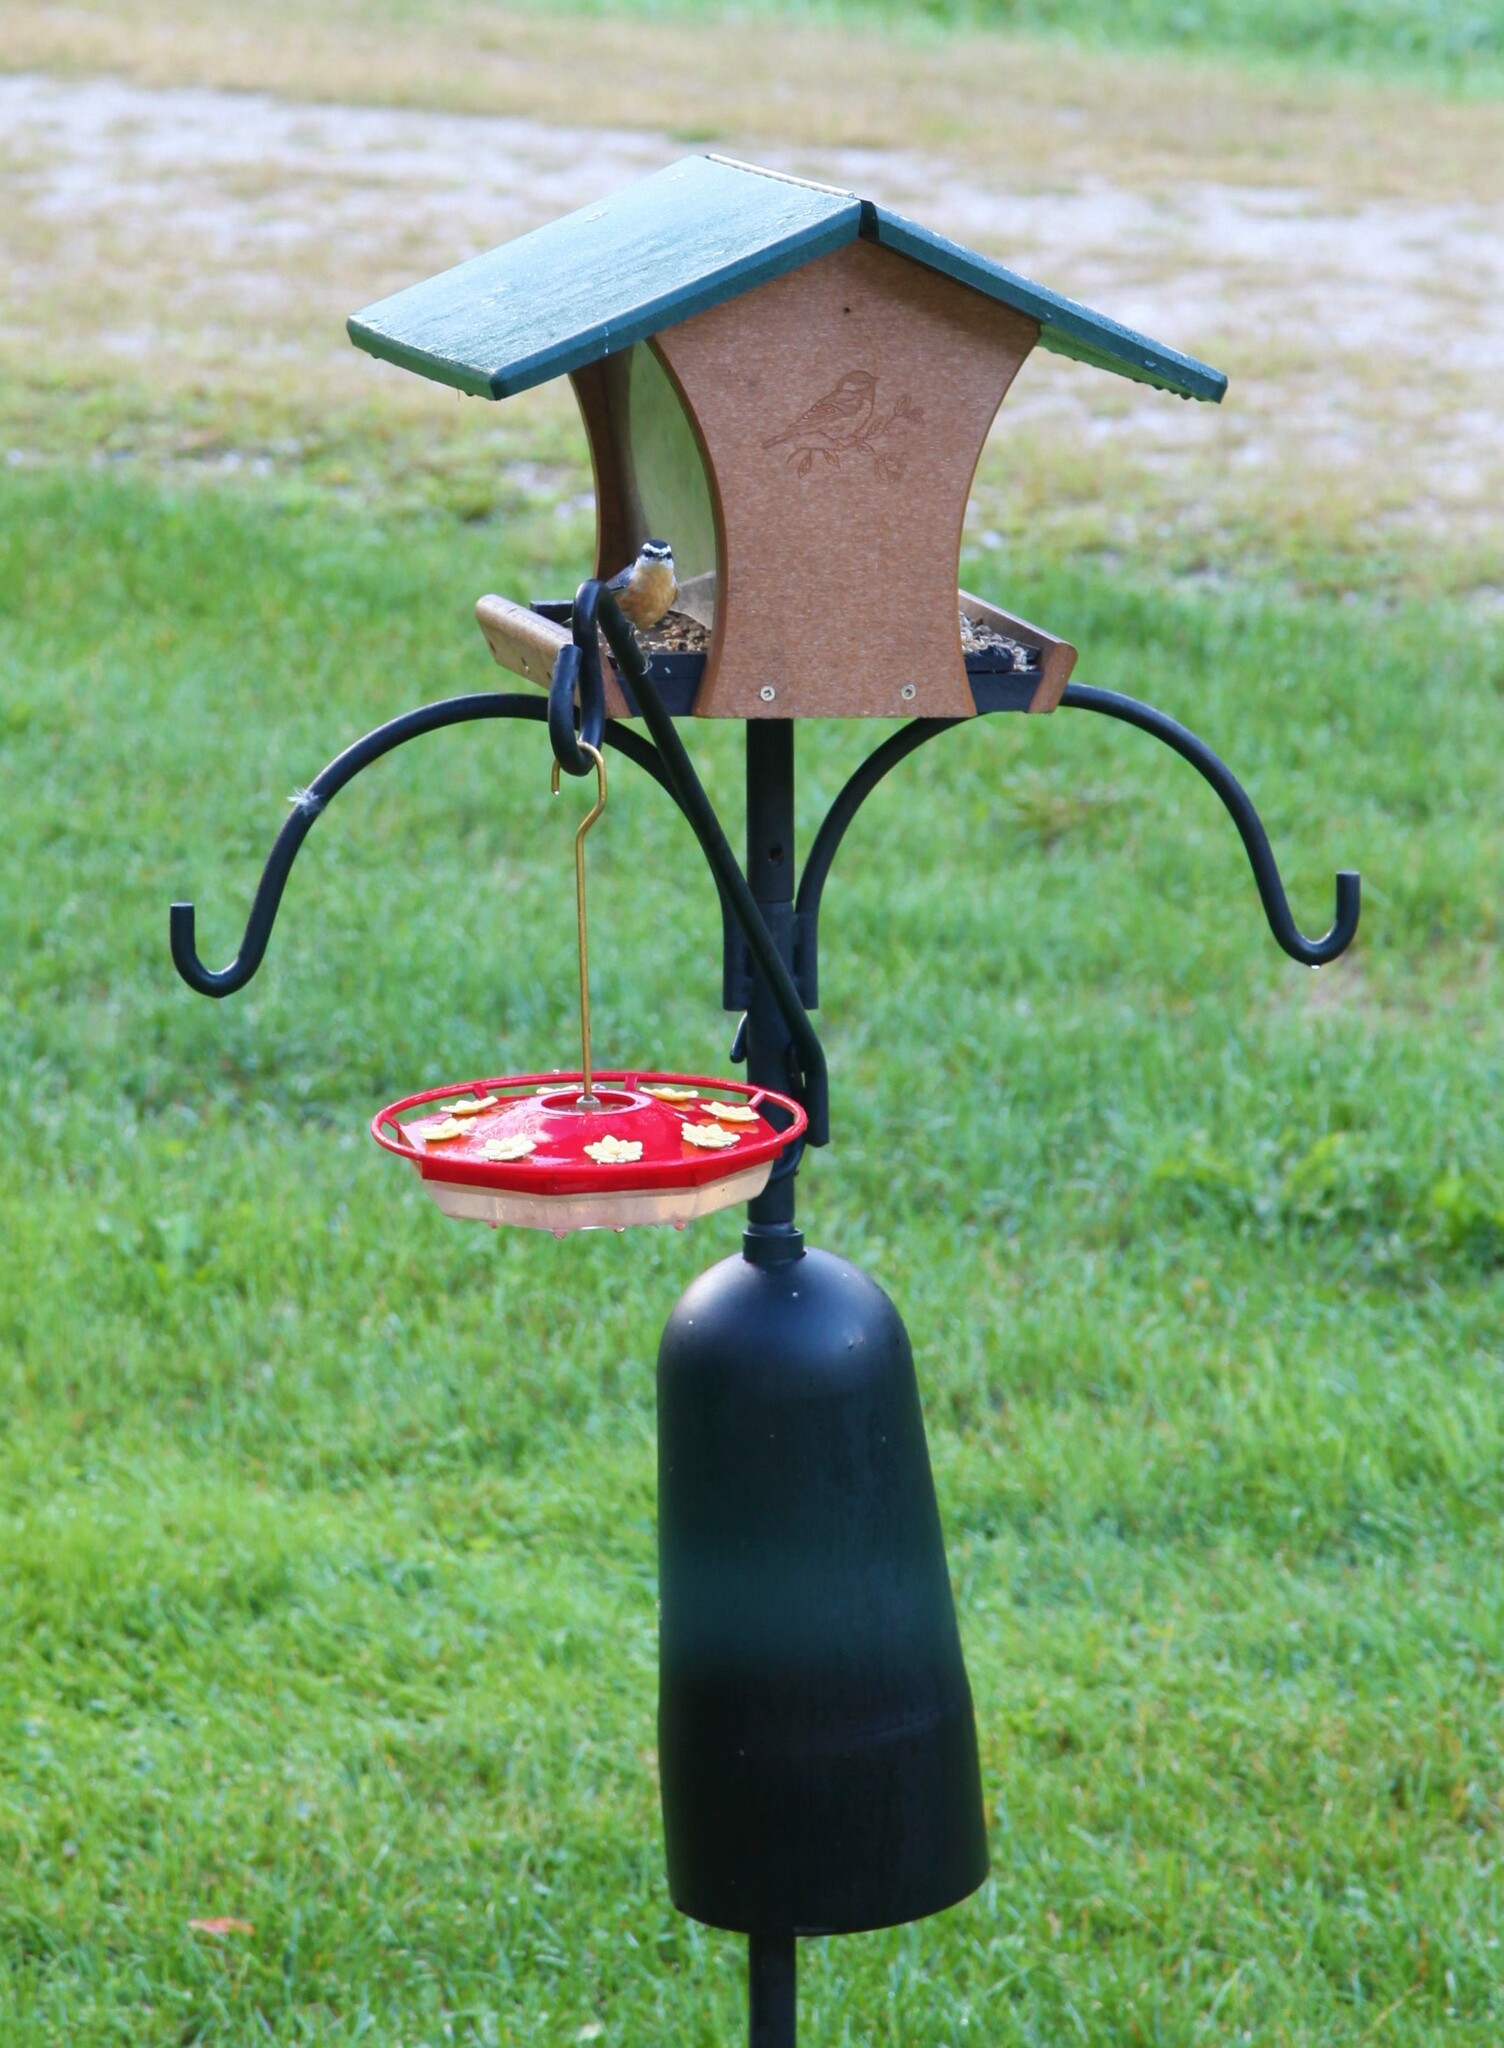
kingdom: Animalia
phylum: Chordata
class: Aves
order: Passeriformes
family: Sittidae
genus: Sitta
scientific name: Sitta canadensis
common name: Red-breasted nuthatch
